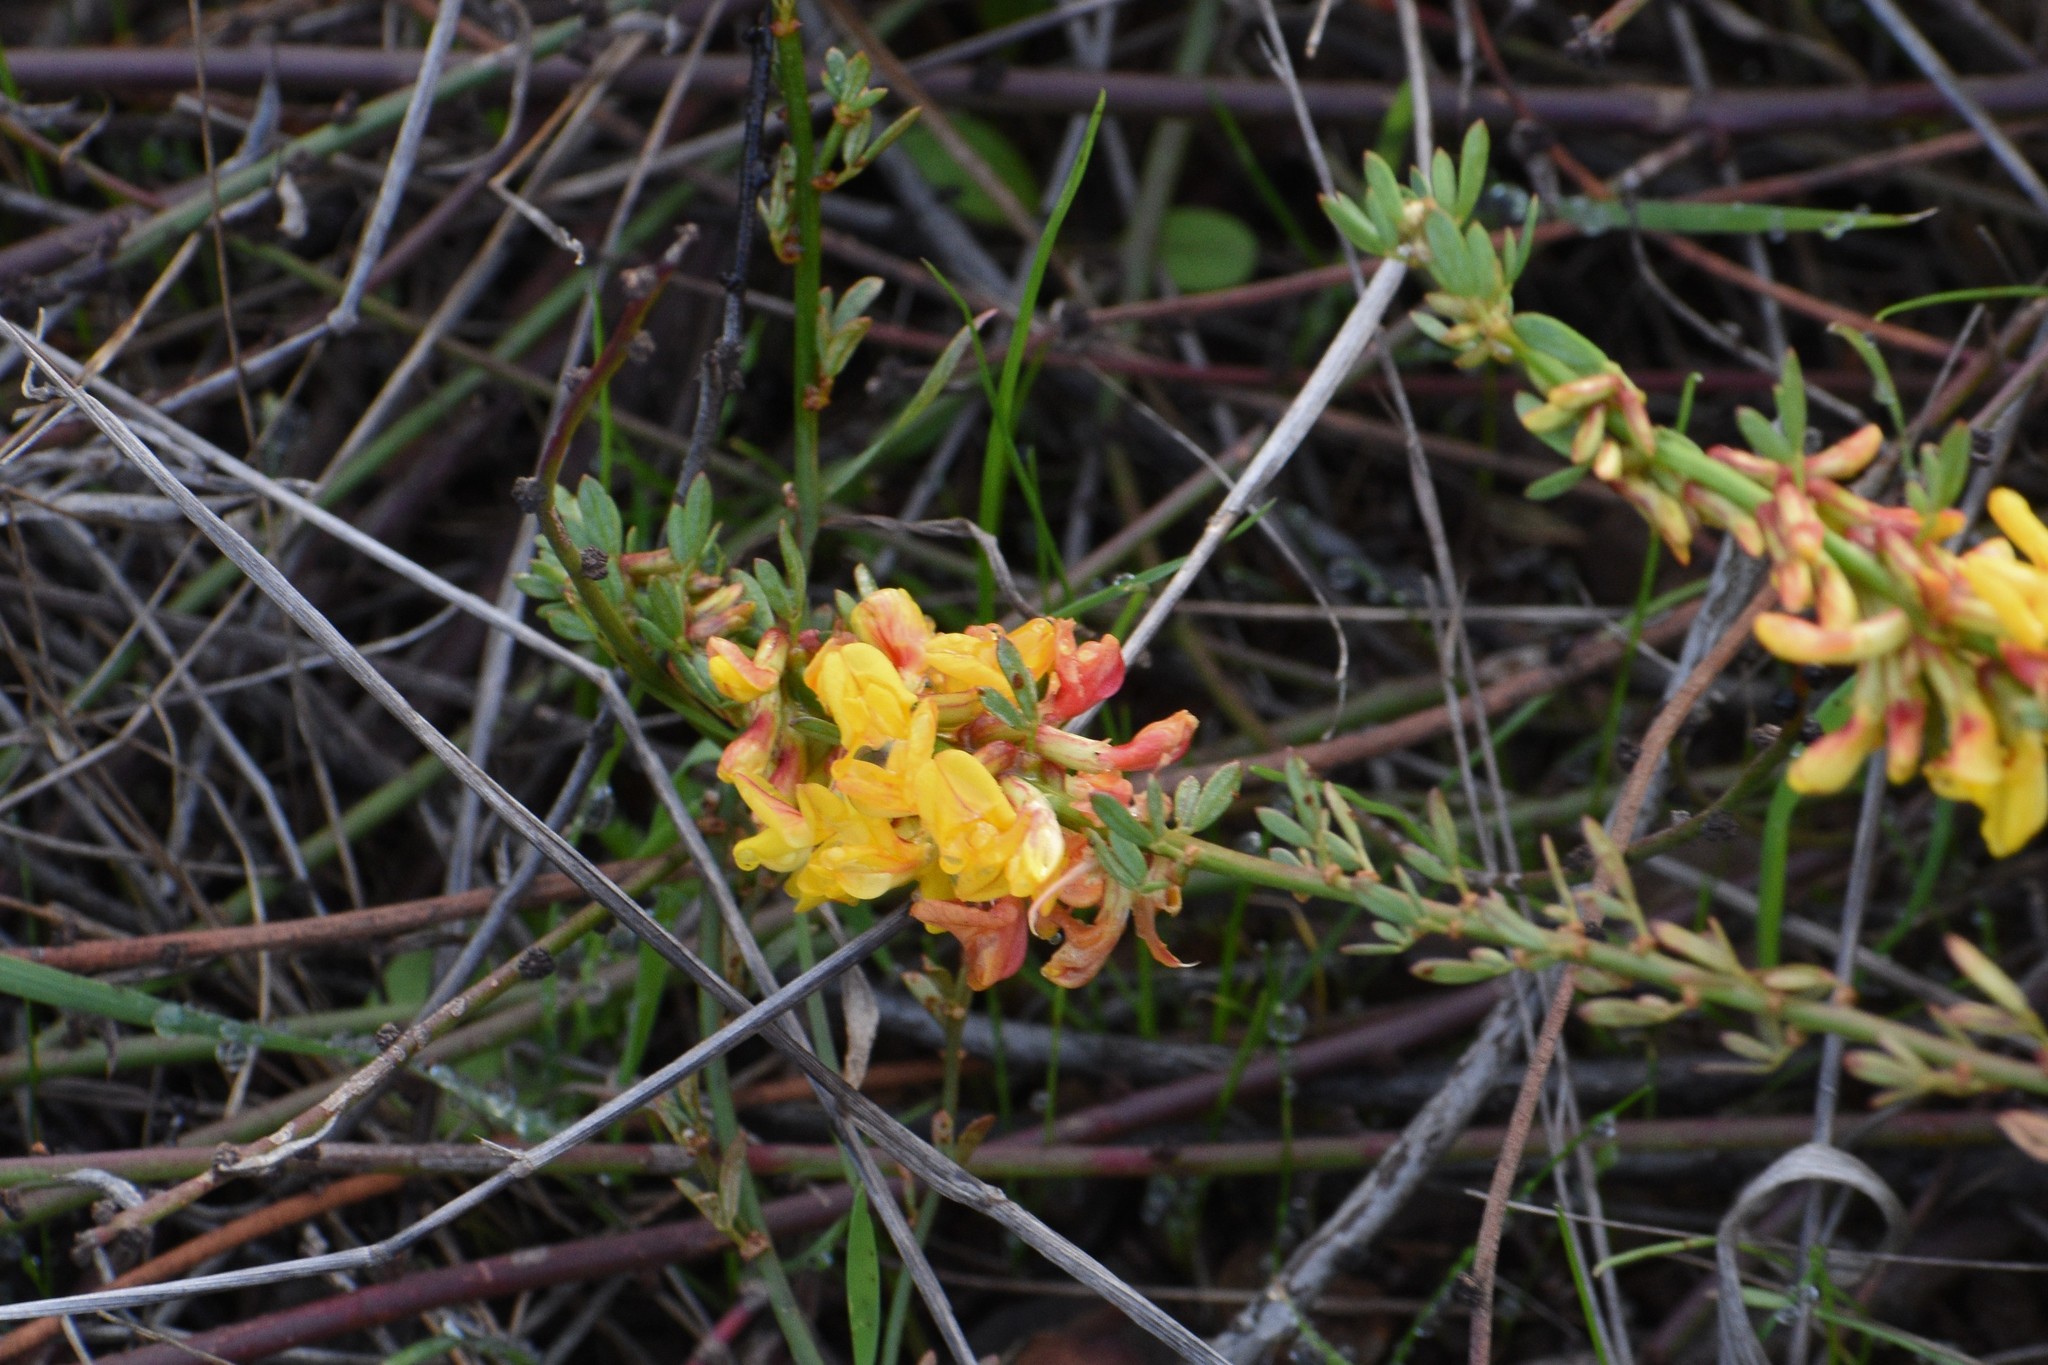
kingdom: Plantae
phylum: Tracheophyta
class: Magnoliopsida
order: Fabales
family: Fabaceae
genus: Acmispon
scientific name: Acmispon glaber
